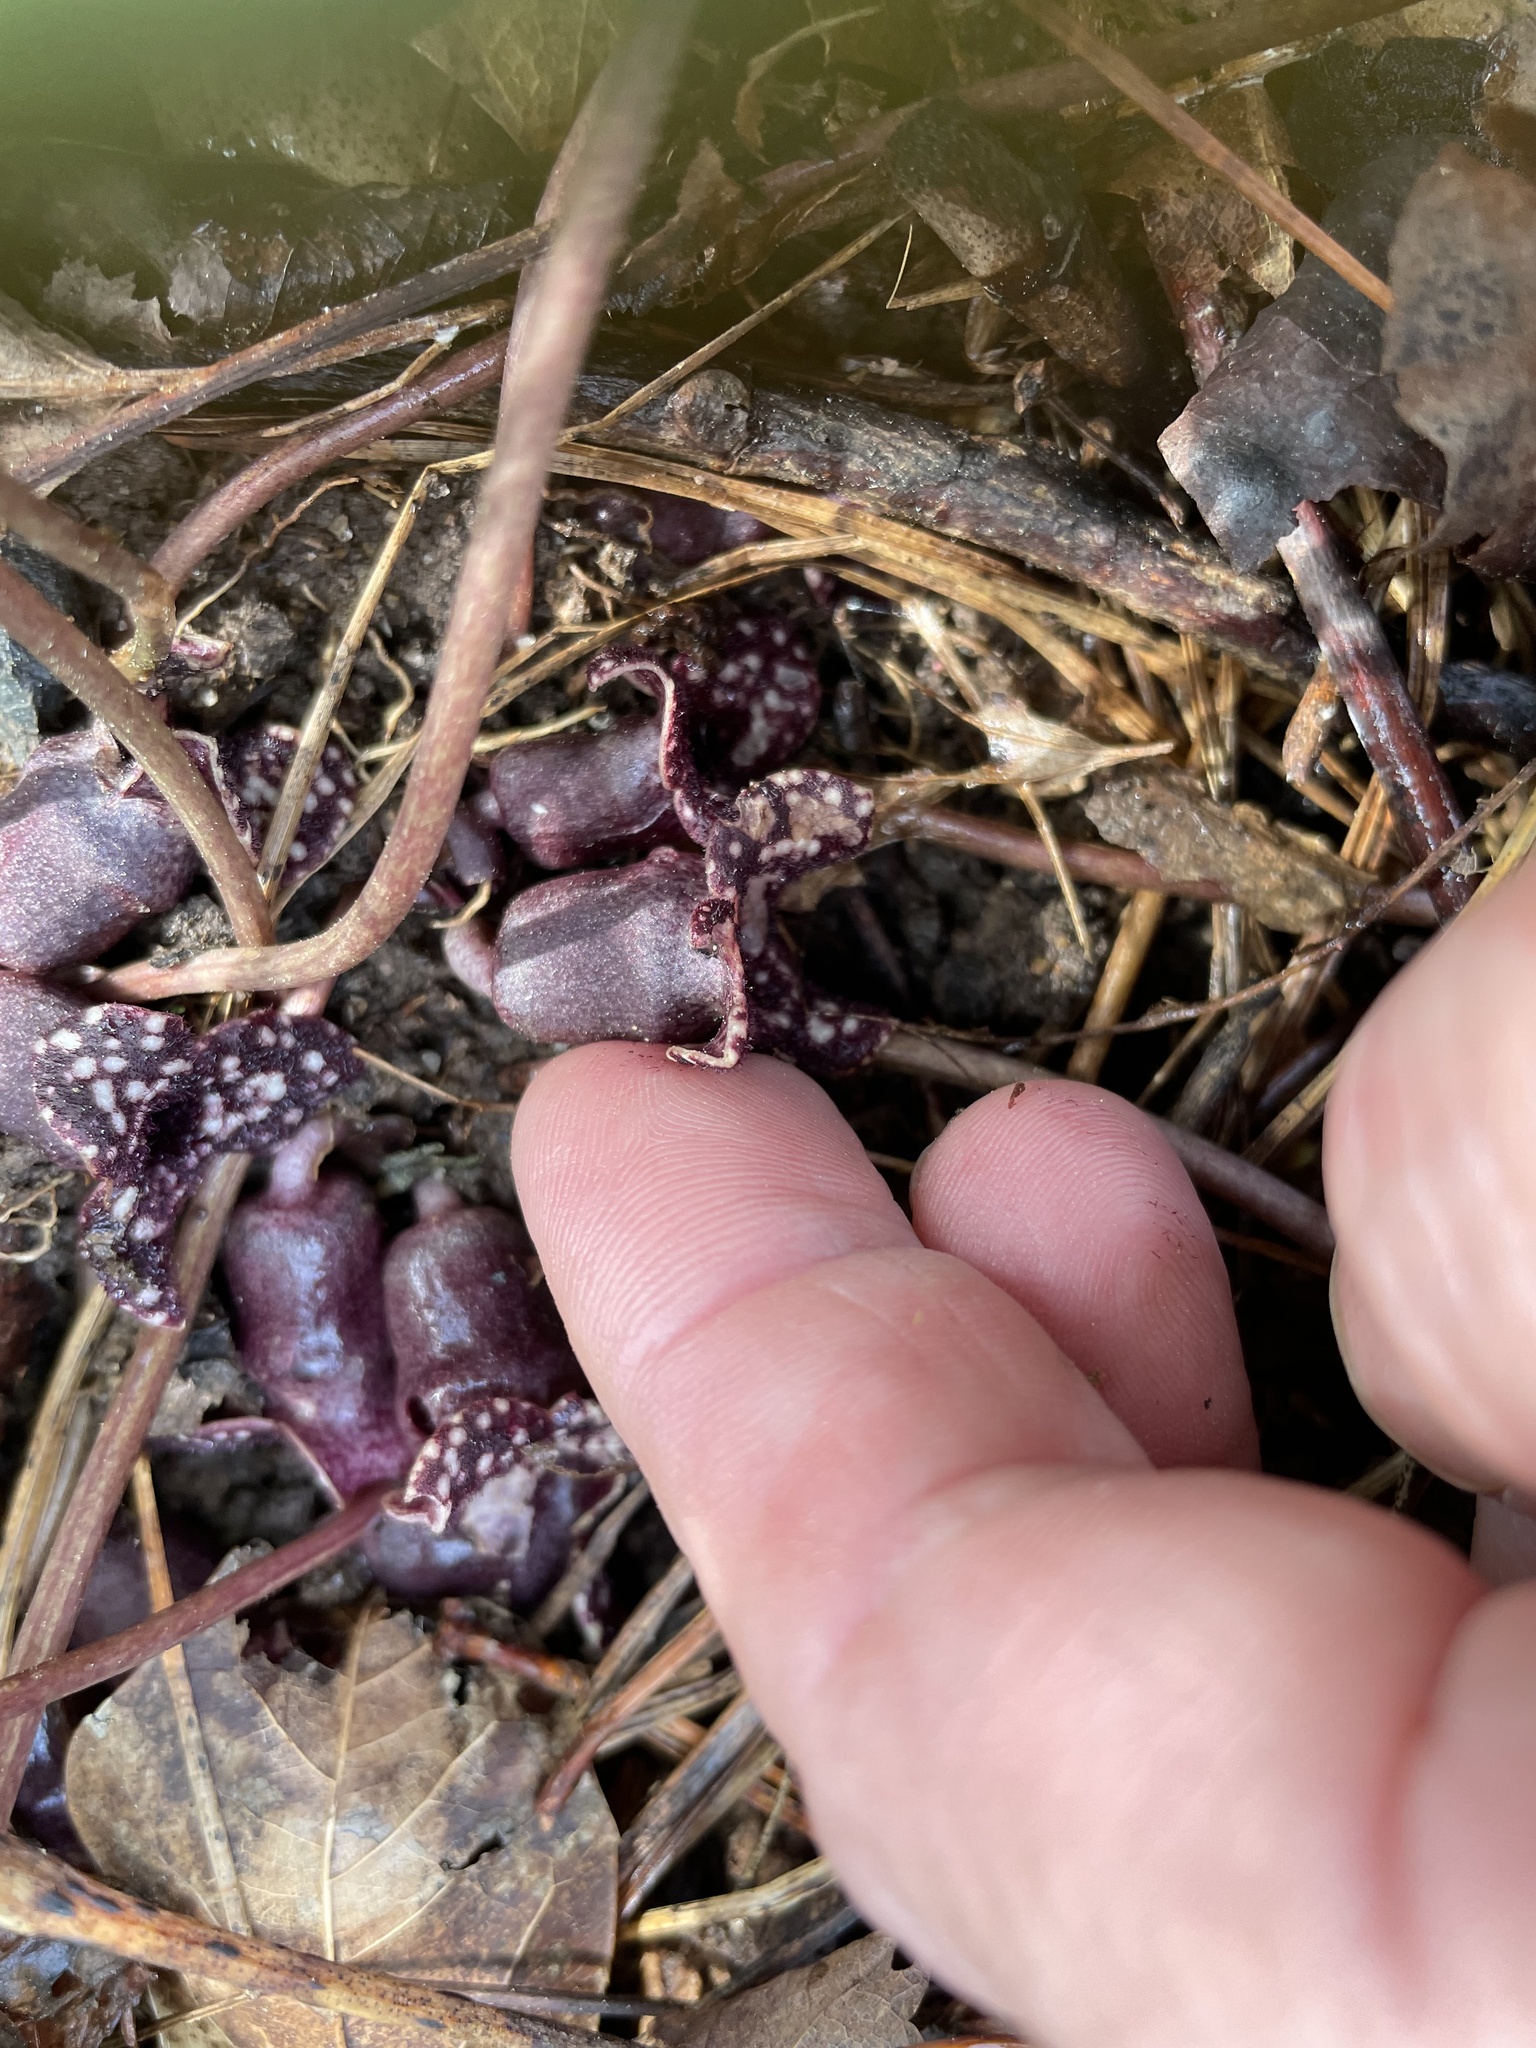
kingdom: Plantae
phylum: Tracheophyta
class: Magnoliopsida
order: Piperales
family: Aristolochiaceae
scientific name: Aristolochiaceae
